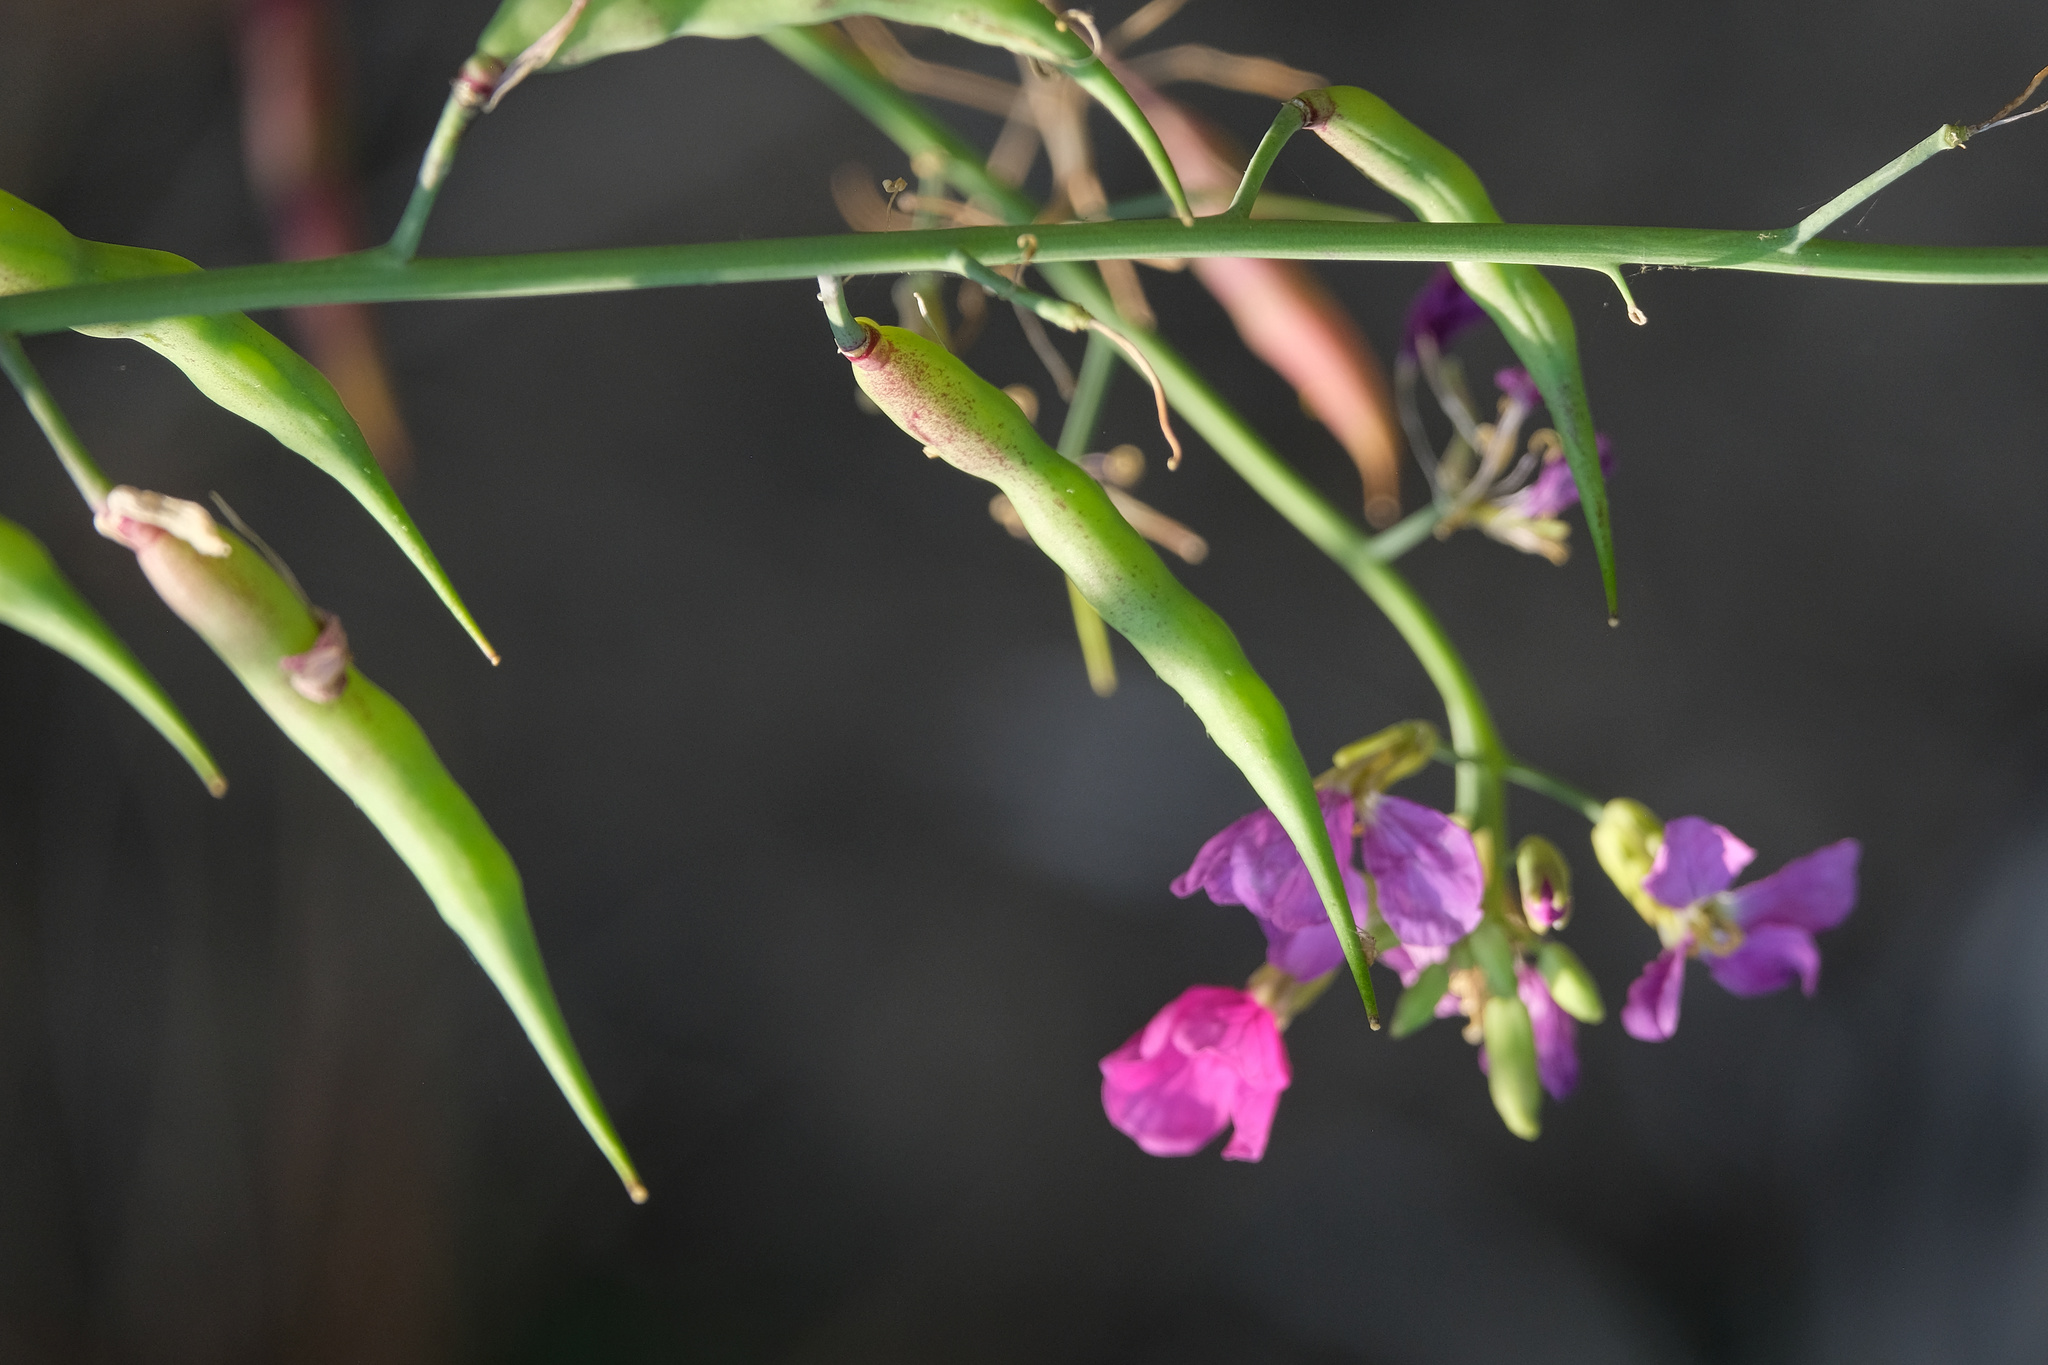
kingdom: Plantae
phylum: Tracheophyta
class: Magnoliopsida
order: Brassicales
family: Brassicaceae
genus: Raphanus
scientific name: Raphanus sativus
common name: Cultivated radish
